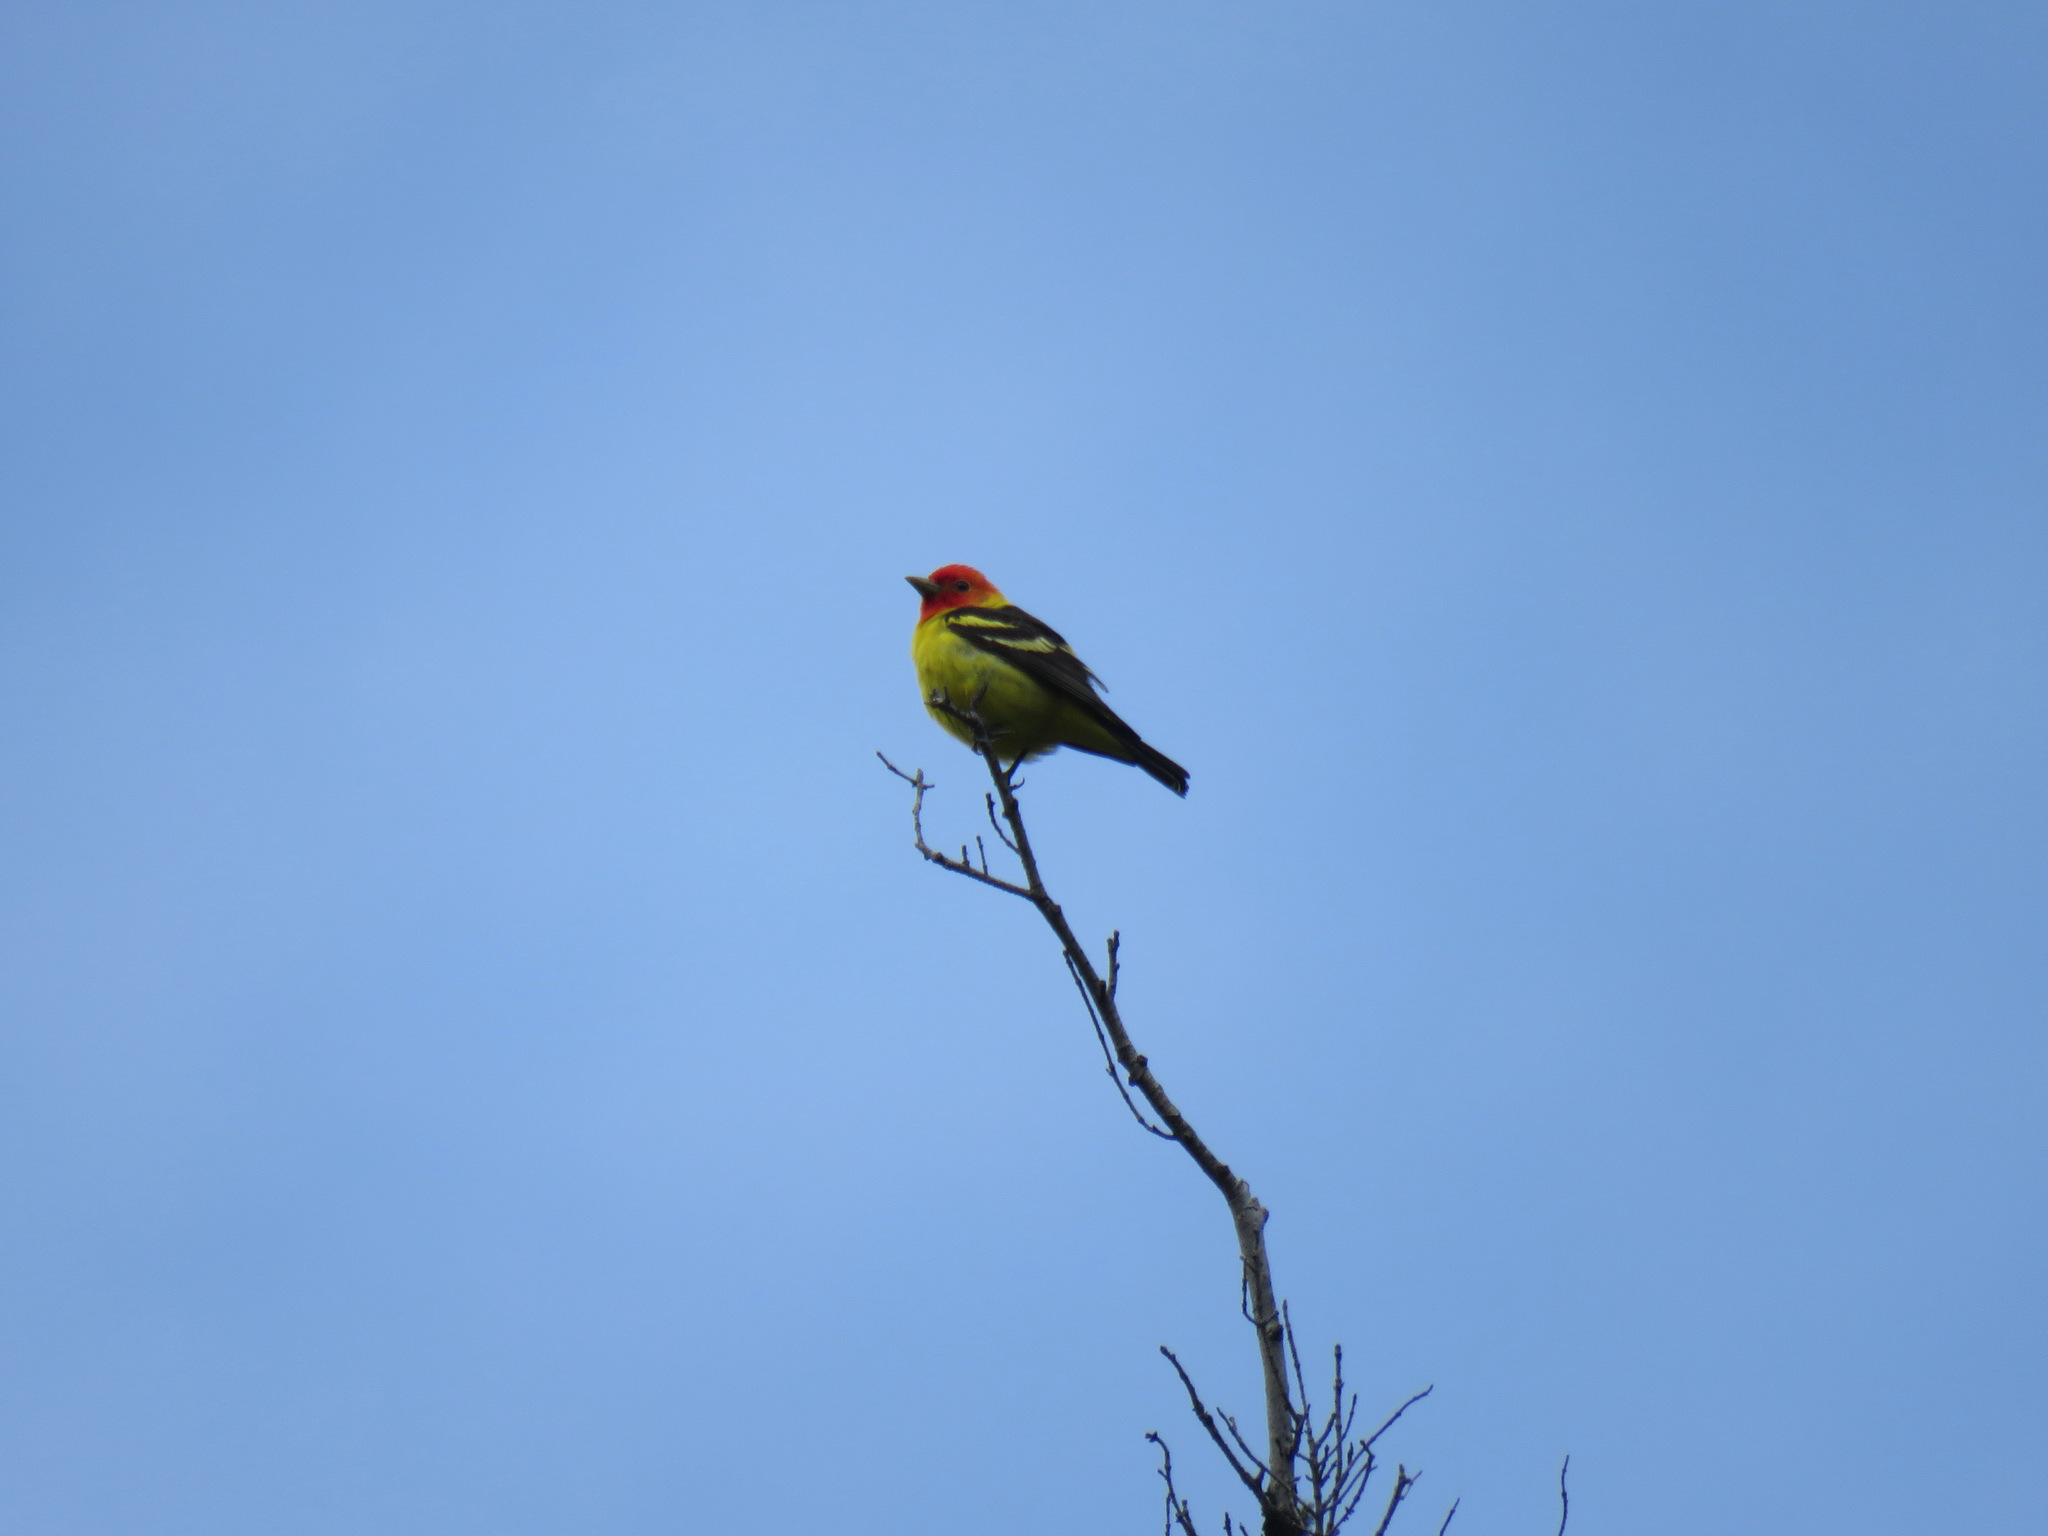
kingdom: Animalia
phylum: Chordata
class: Aves
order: Passeriformes
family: Cardinalidae
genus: Piranga
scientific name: Piranga ludoviciana
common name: Western tanager
